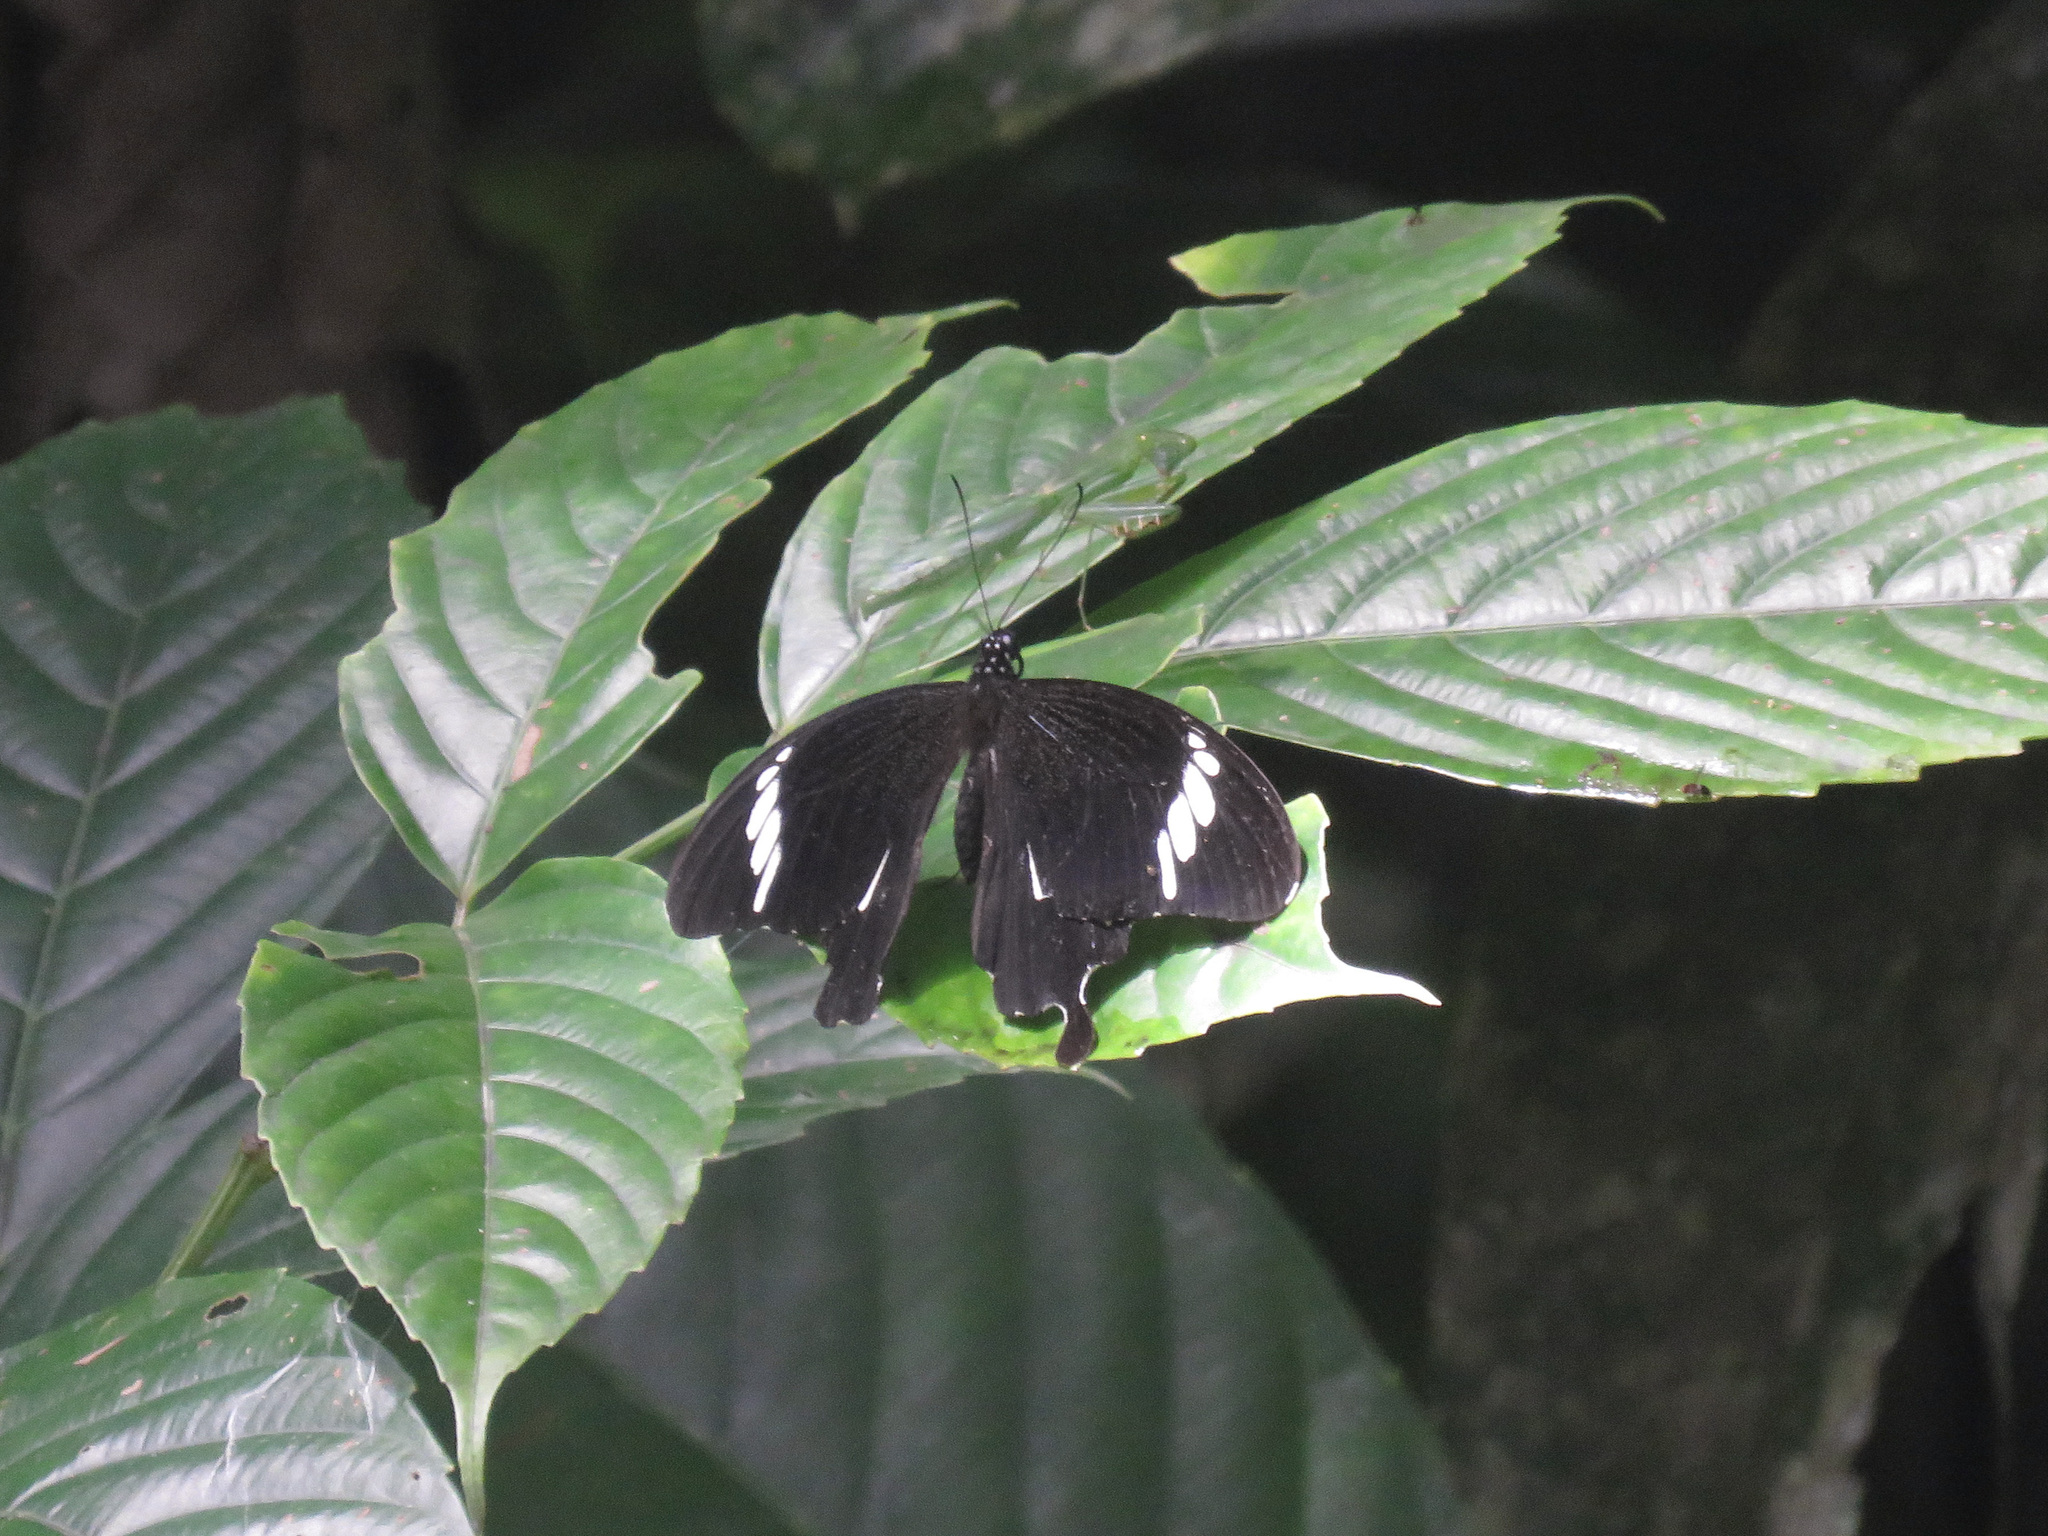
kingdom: Animalia
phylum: Arthropoda
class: Insecta
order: Lepidoptera
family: Papilionidae
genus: Papilio
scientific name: Papilio nephelus
